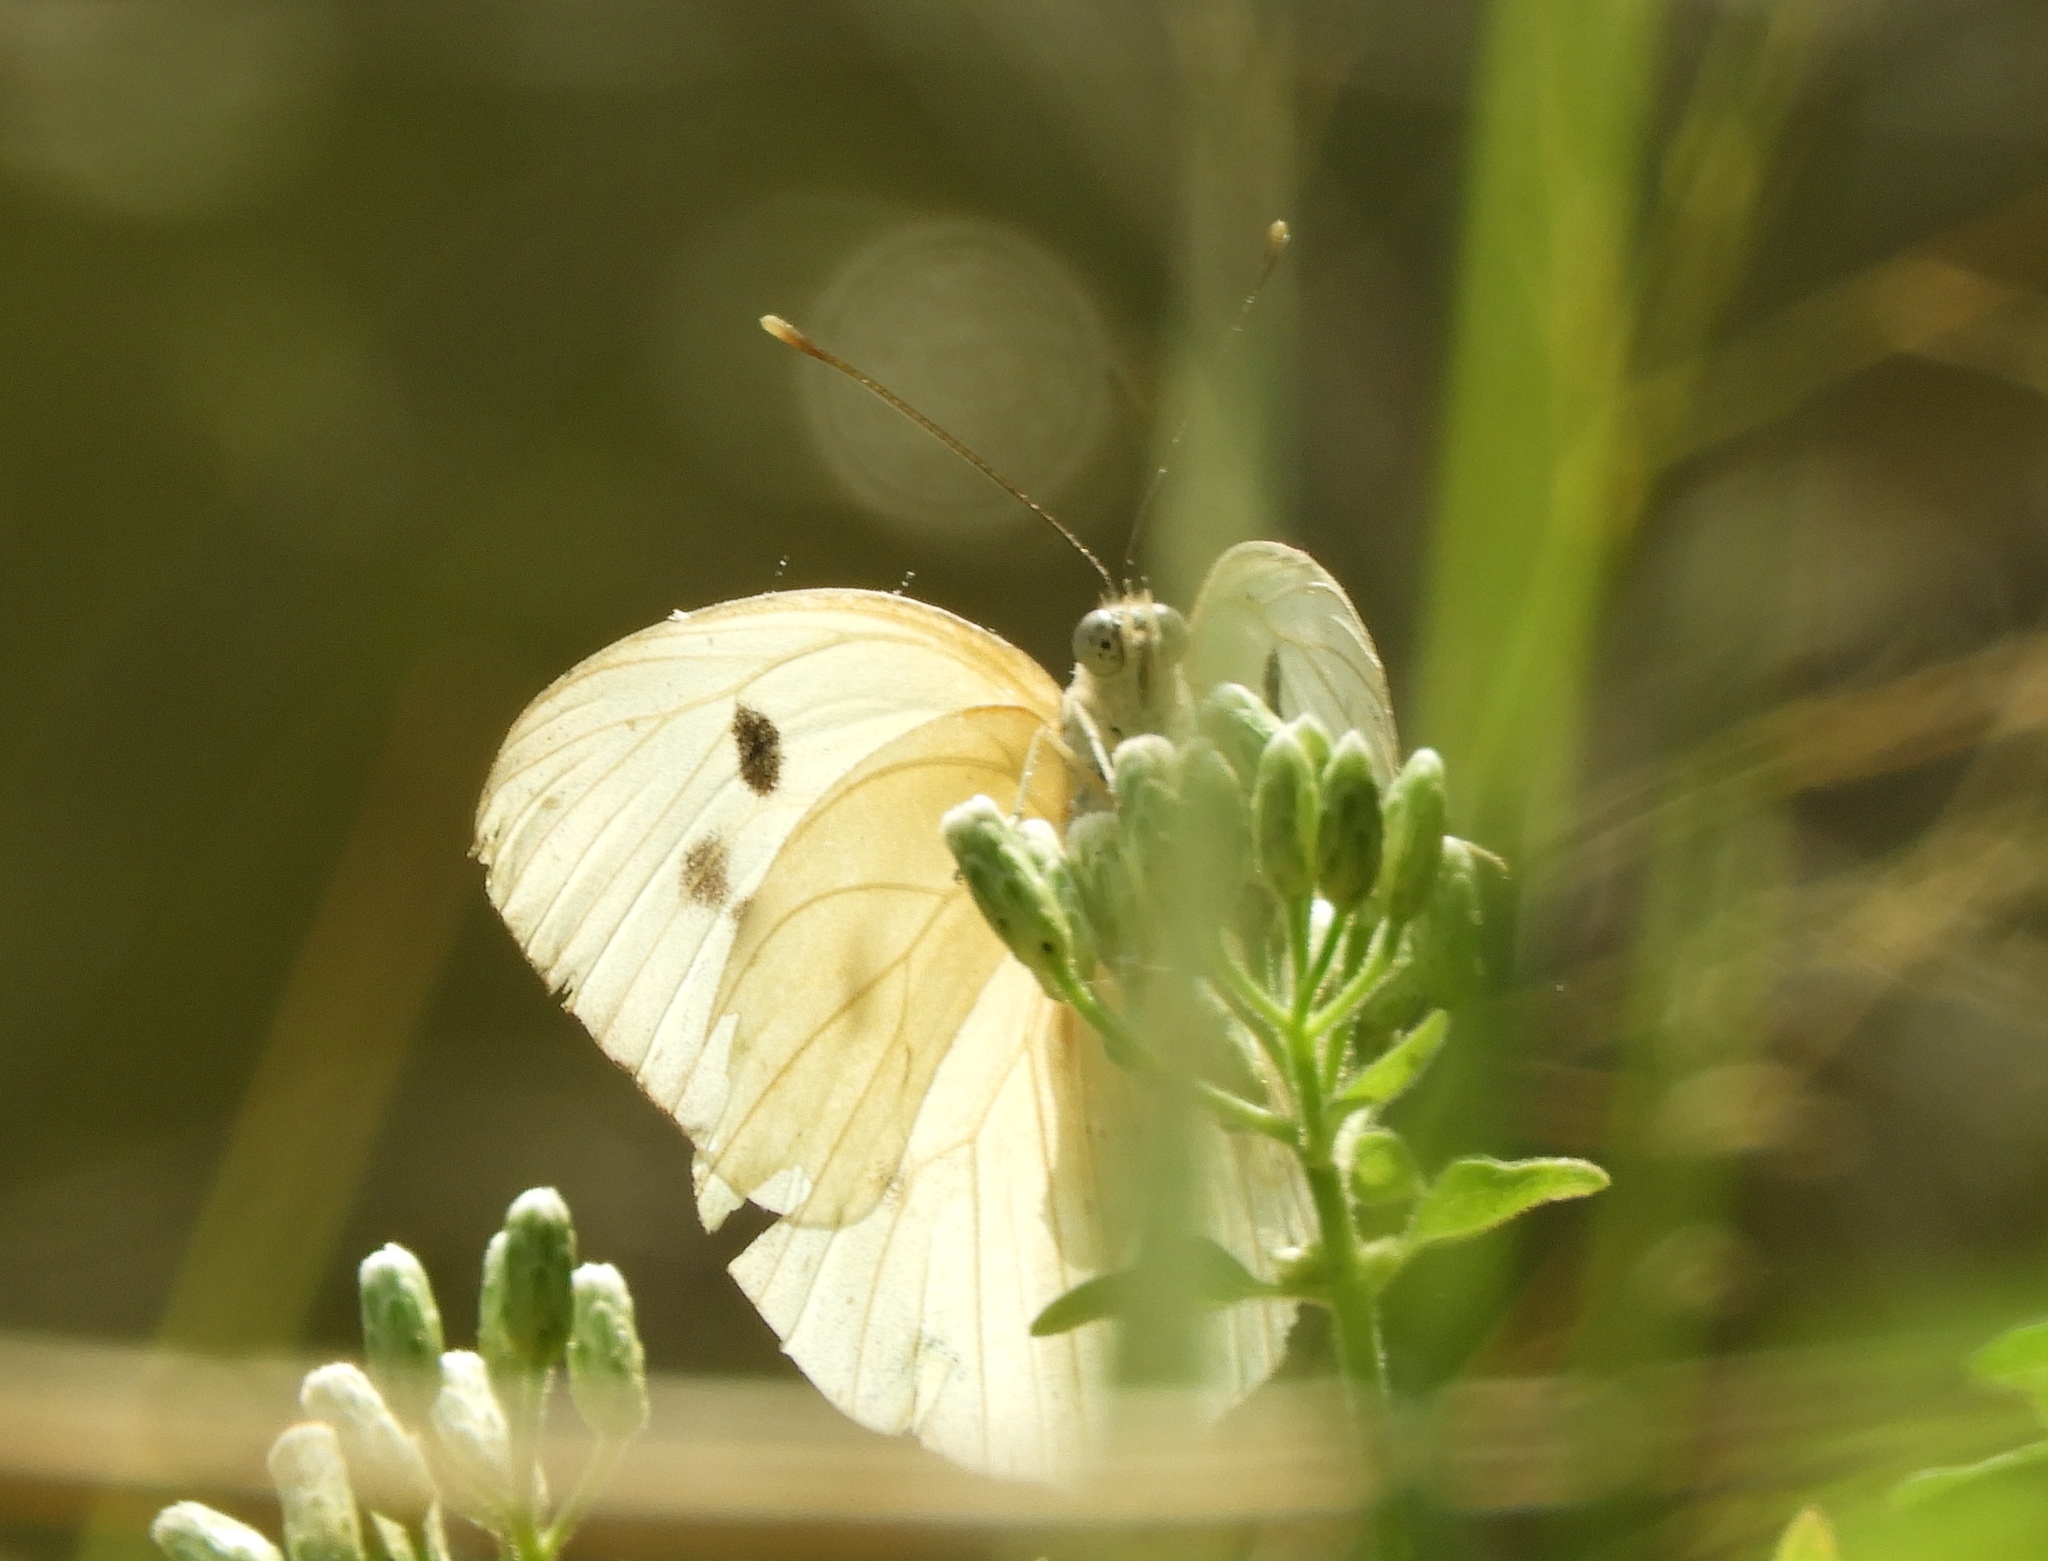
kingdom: Animalia
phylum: Arthropoda
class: Insecta
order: Lepidoptera
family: Pieridae
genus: Ganyra
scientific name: Ganyra josephina
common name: Giant white
